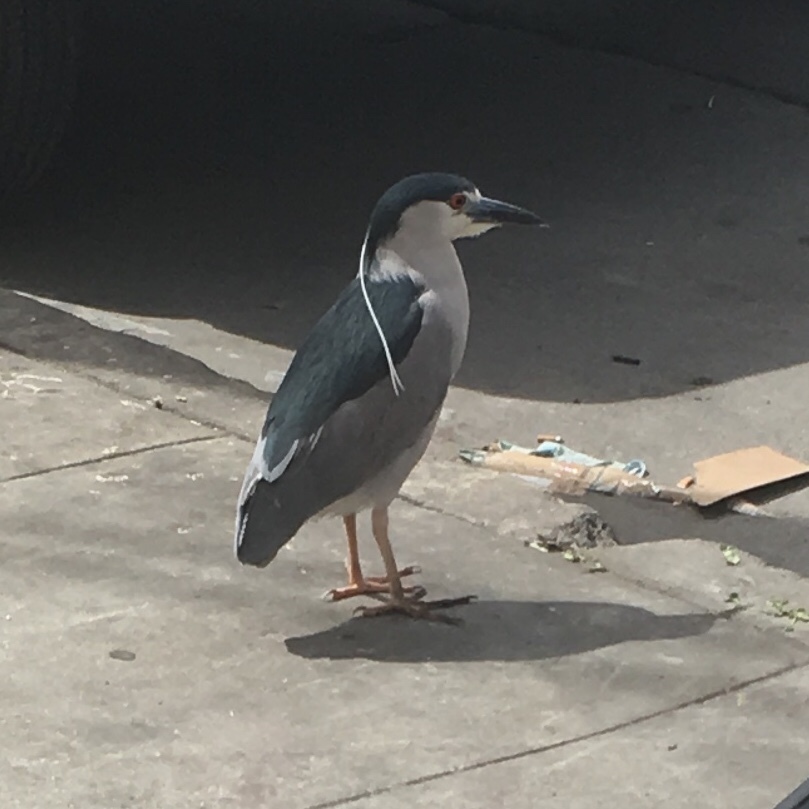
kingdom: Animalia
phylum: Chordata
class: Aves
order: Pelecaniformes
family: Ardeidae
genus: Nycticorax
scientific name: Nycticorax nycticorax
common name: Black-crowned night heron
